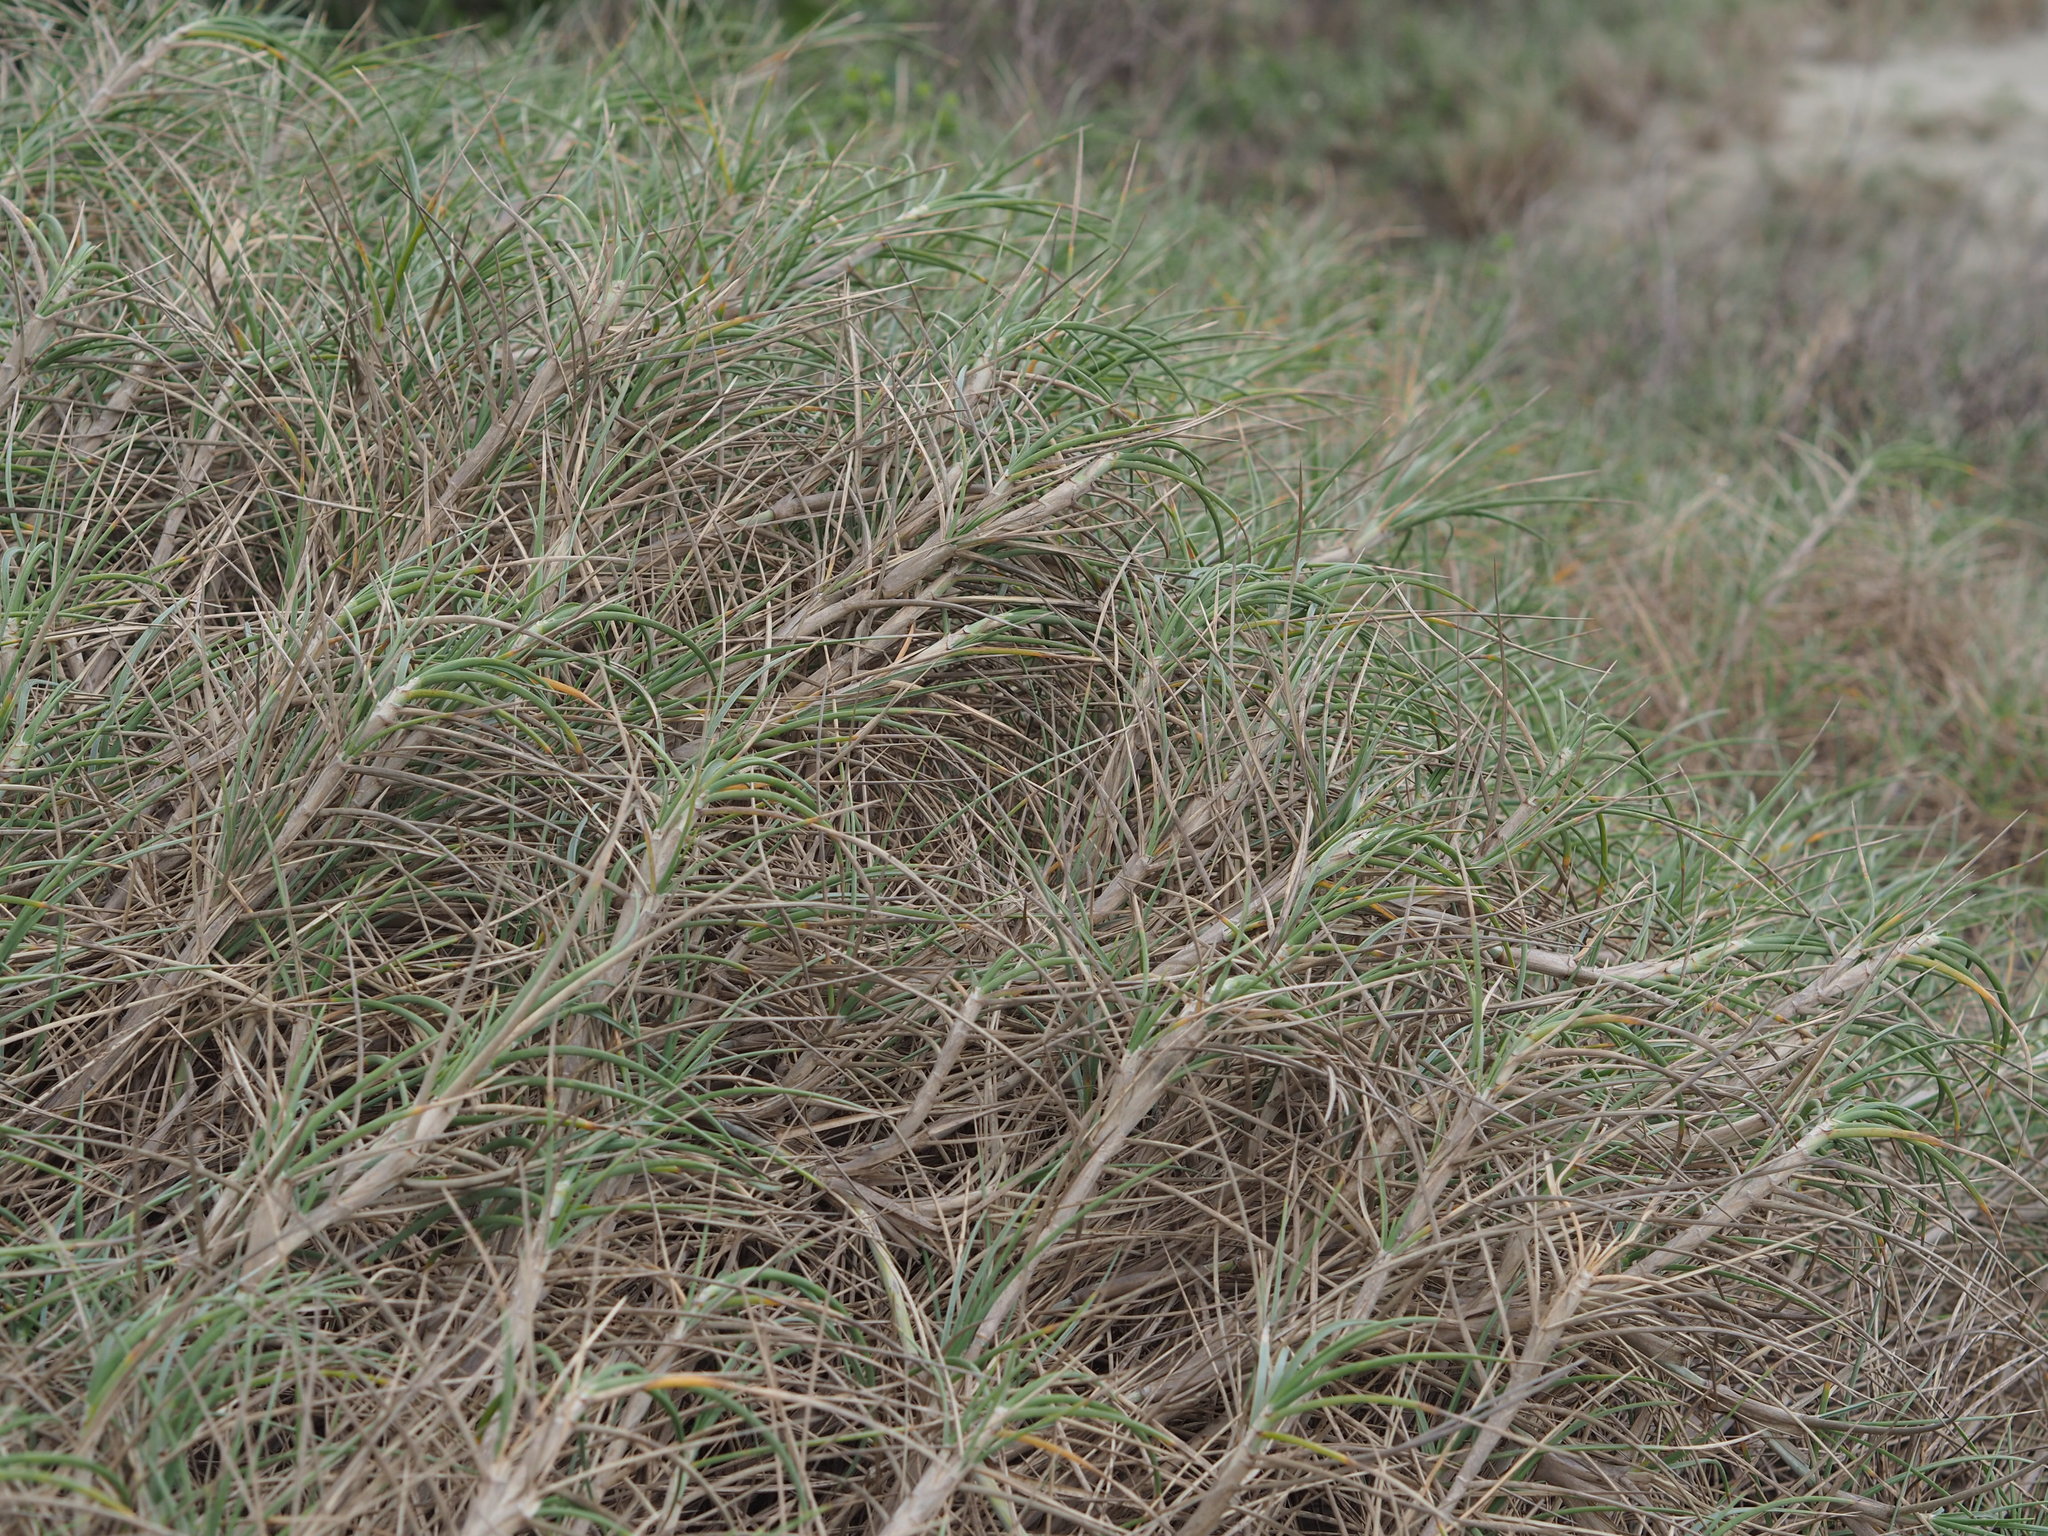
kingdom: Plantae
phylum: Tracheophyta
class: Liliopsida
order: Poales
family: Poaceae
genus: Spinifex
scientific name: Spinifex littoreus
